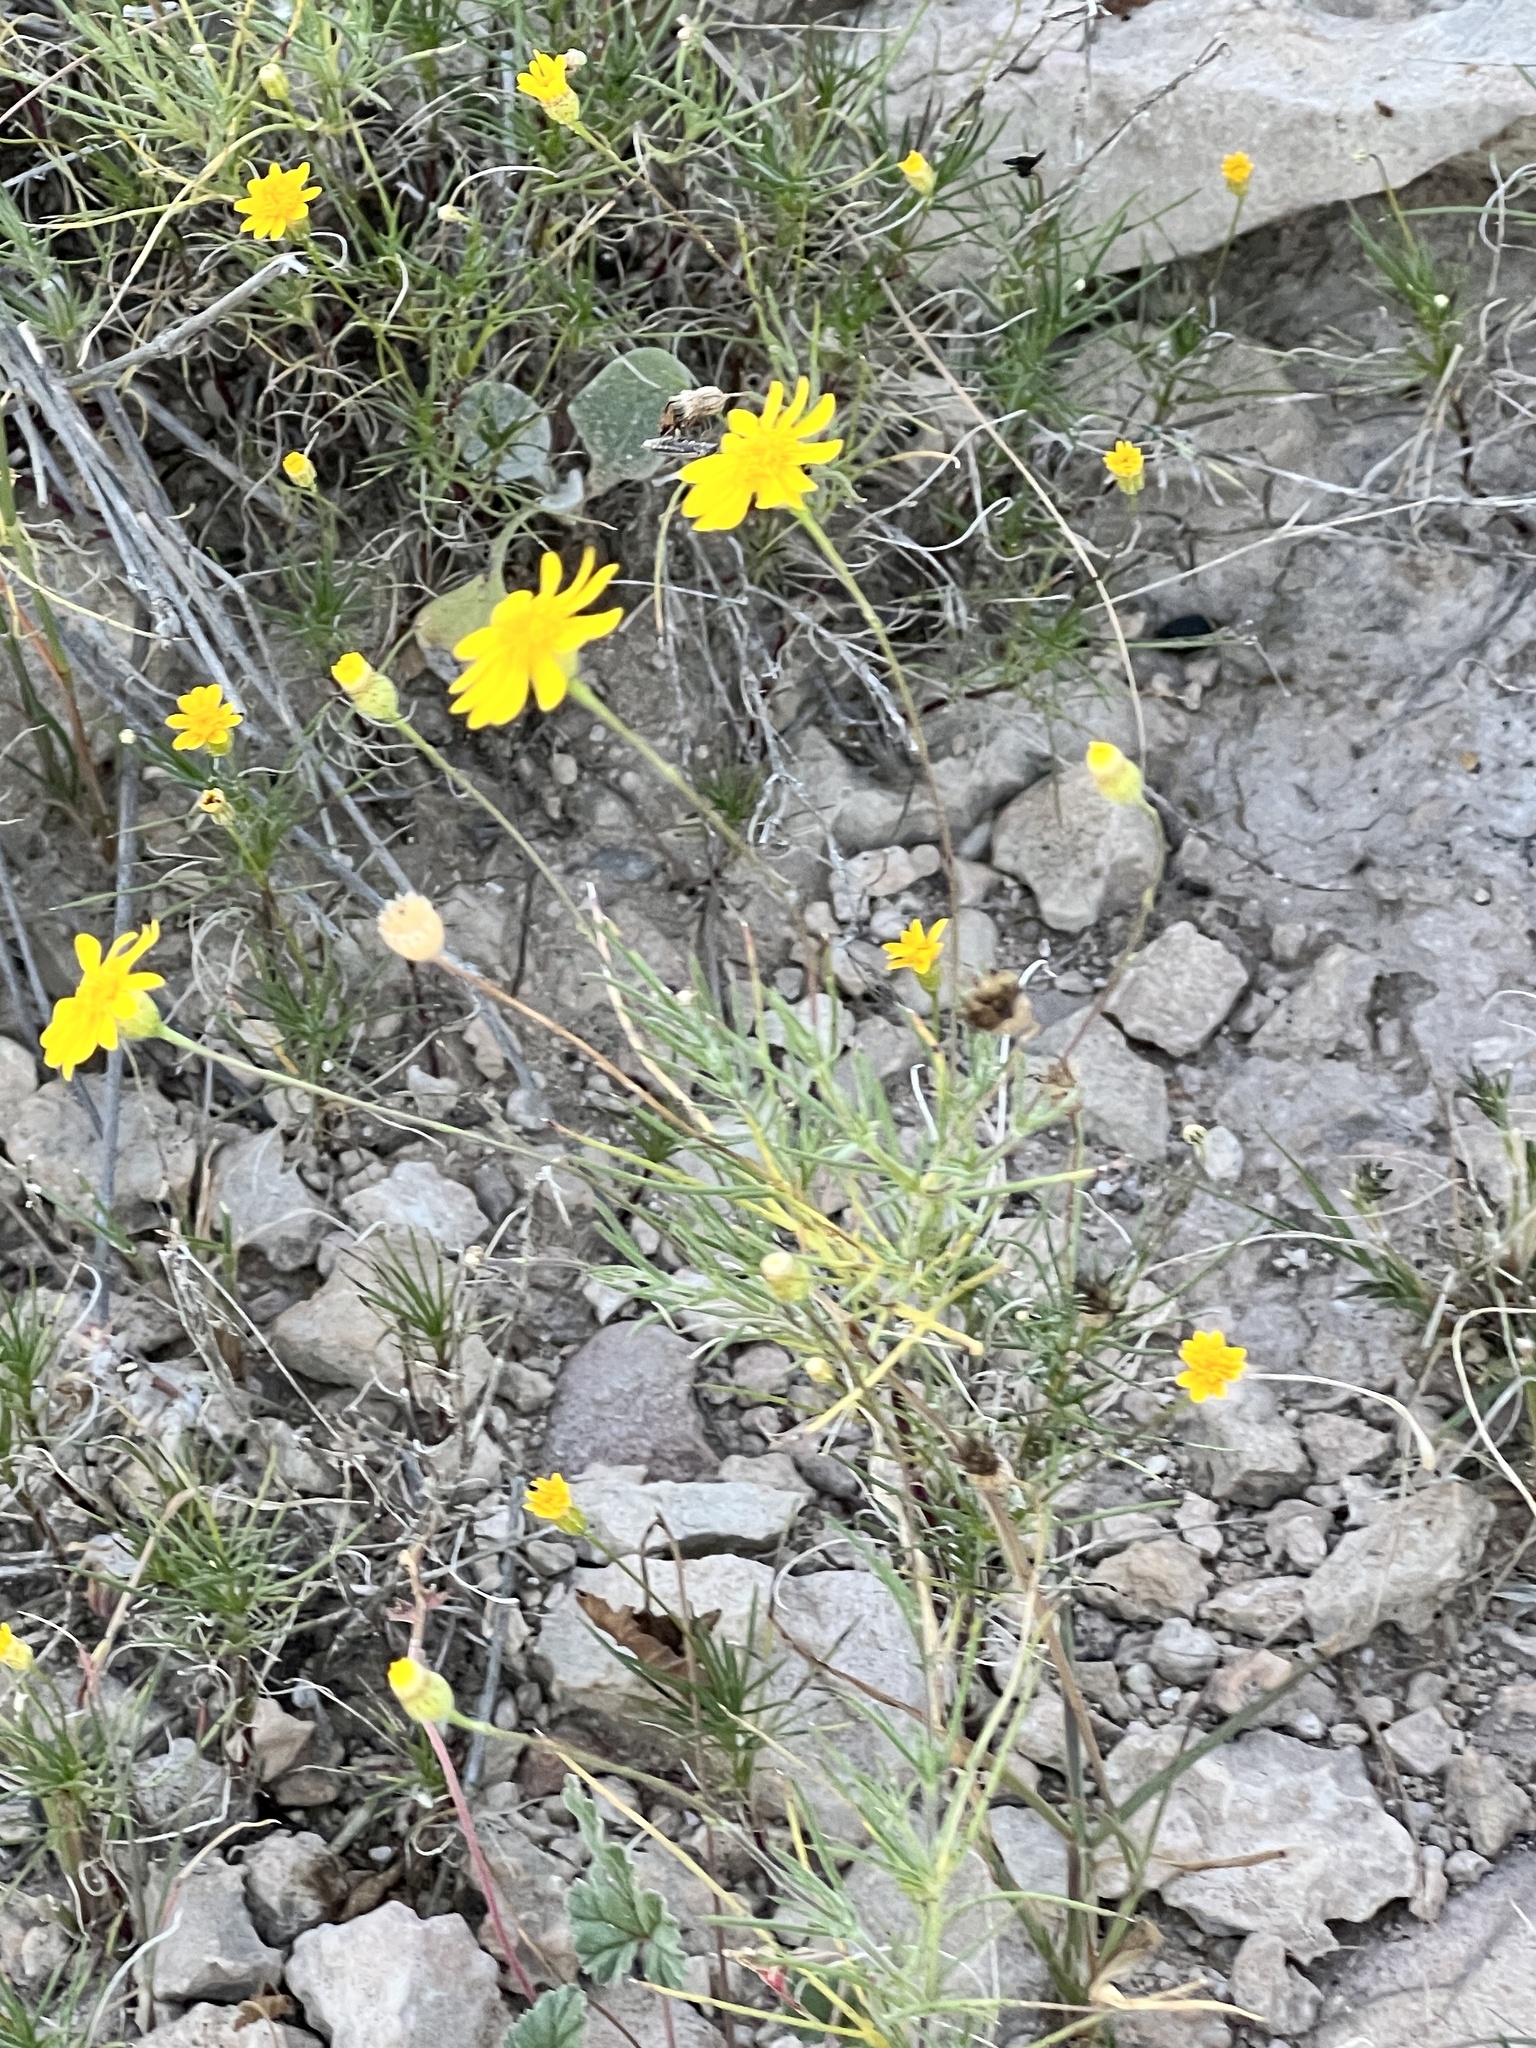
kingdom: Plantae
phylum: Tracheophyta
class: Magnoliopsida
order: Asterales
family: Asteraceae
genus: Thymophylla
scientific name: Thymophylla pentachaeta
